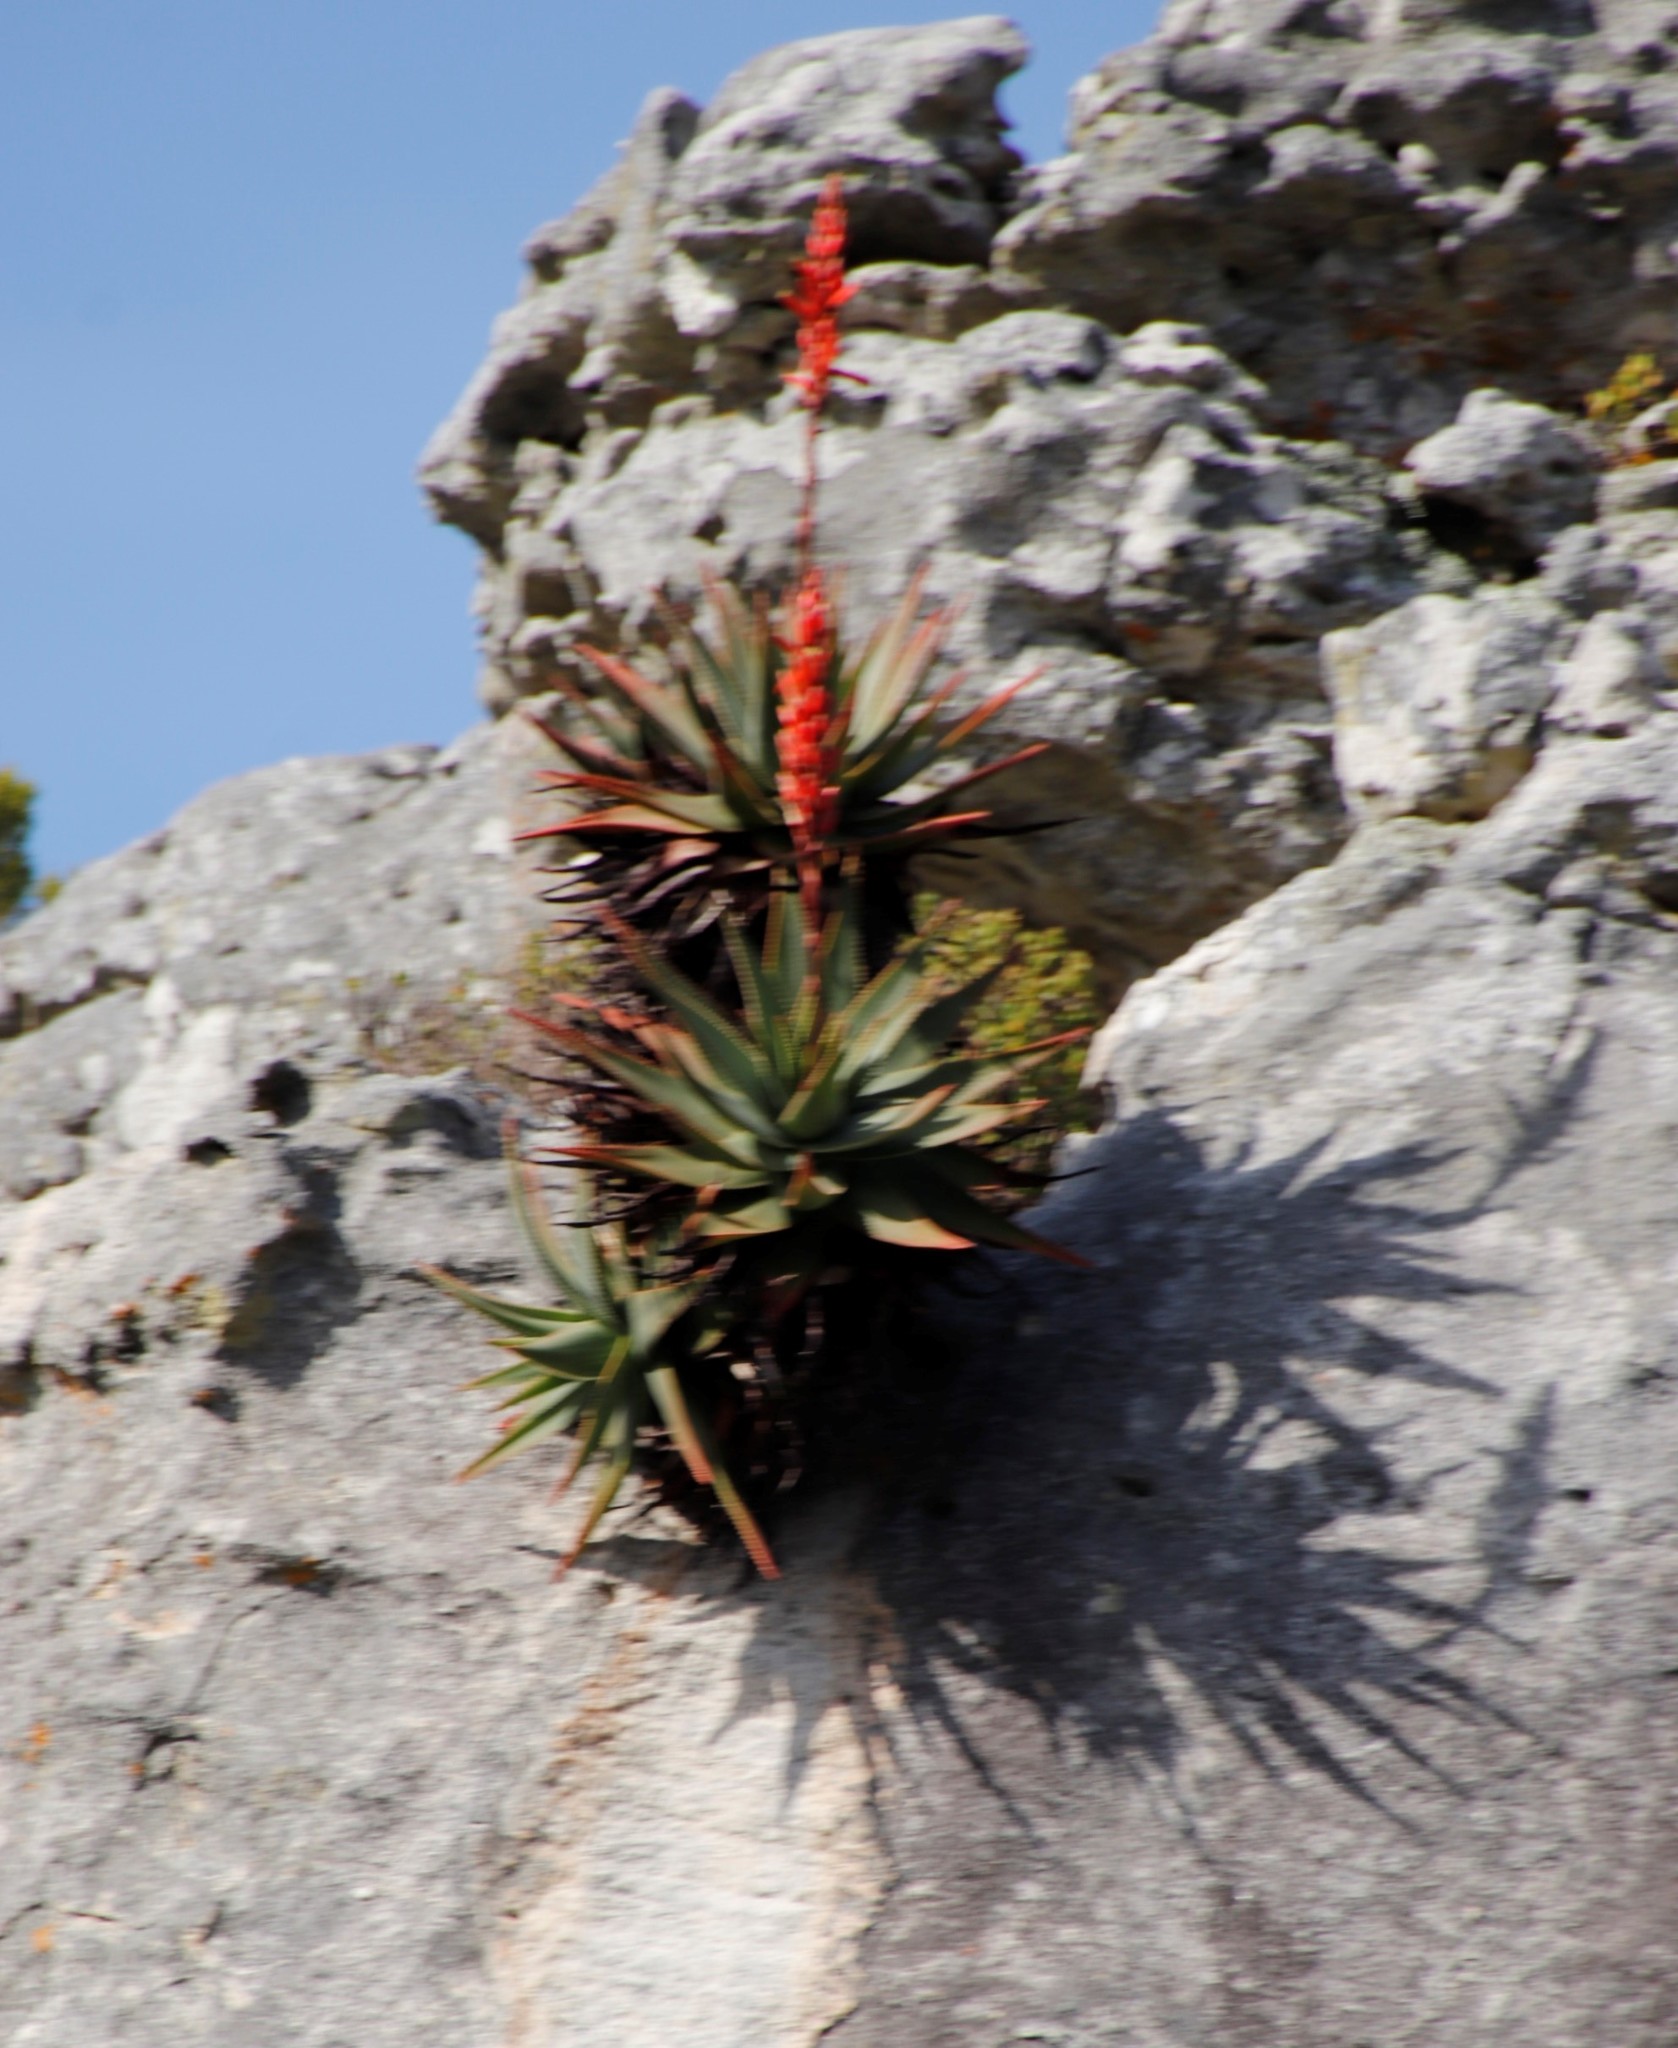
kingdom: Plantae
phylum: Tracheophyta
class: Liliopsida
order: Asparagales
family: Asphodelaceae
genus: Aloe
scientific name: Aloe succotrina
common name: Bombay aloe
